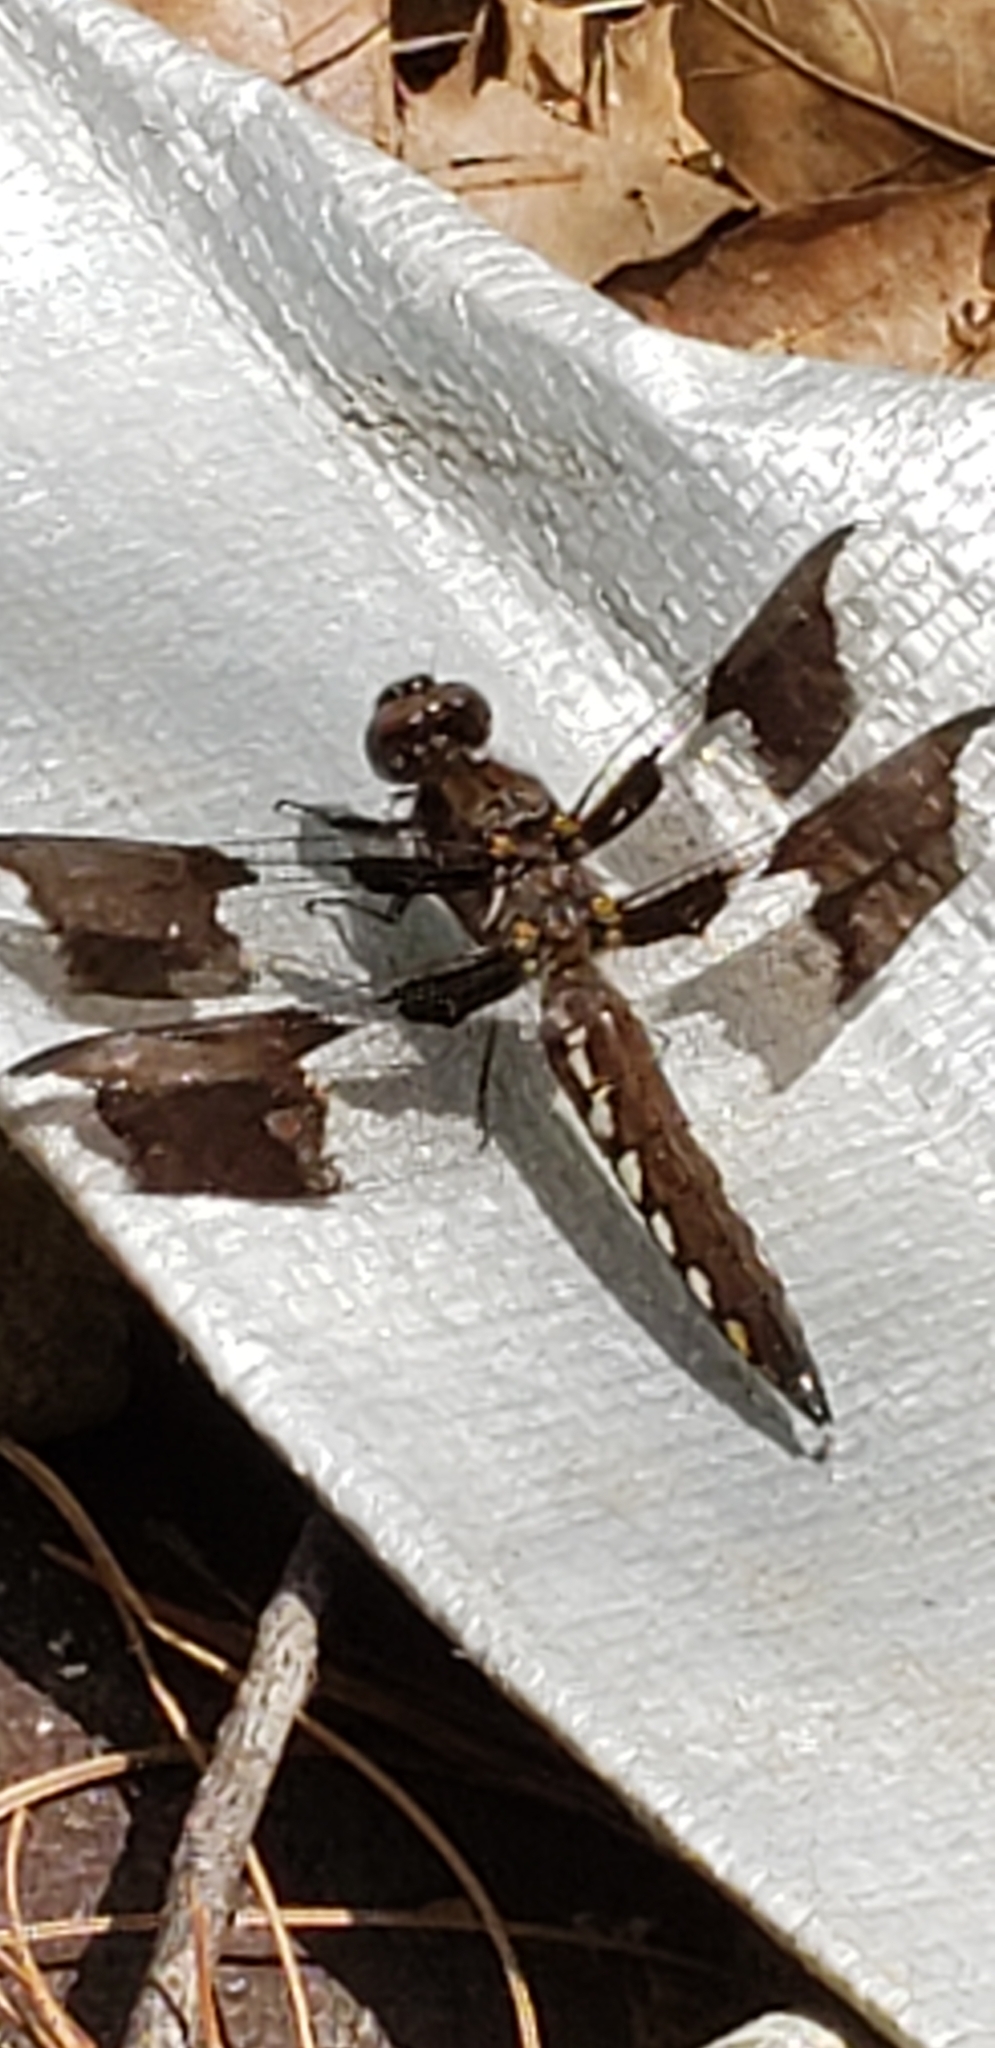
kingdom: Animalia
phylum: Arthropoda
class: Insecta
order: Odonata
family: Libellulidae
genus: Plathemis
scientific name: Plathemis lydia
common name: Common whitetail
